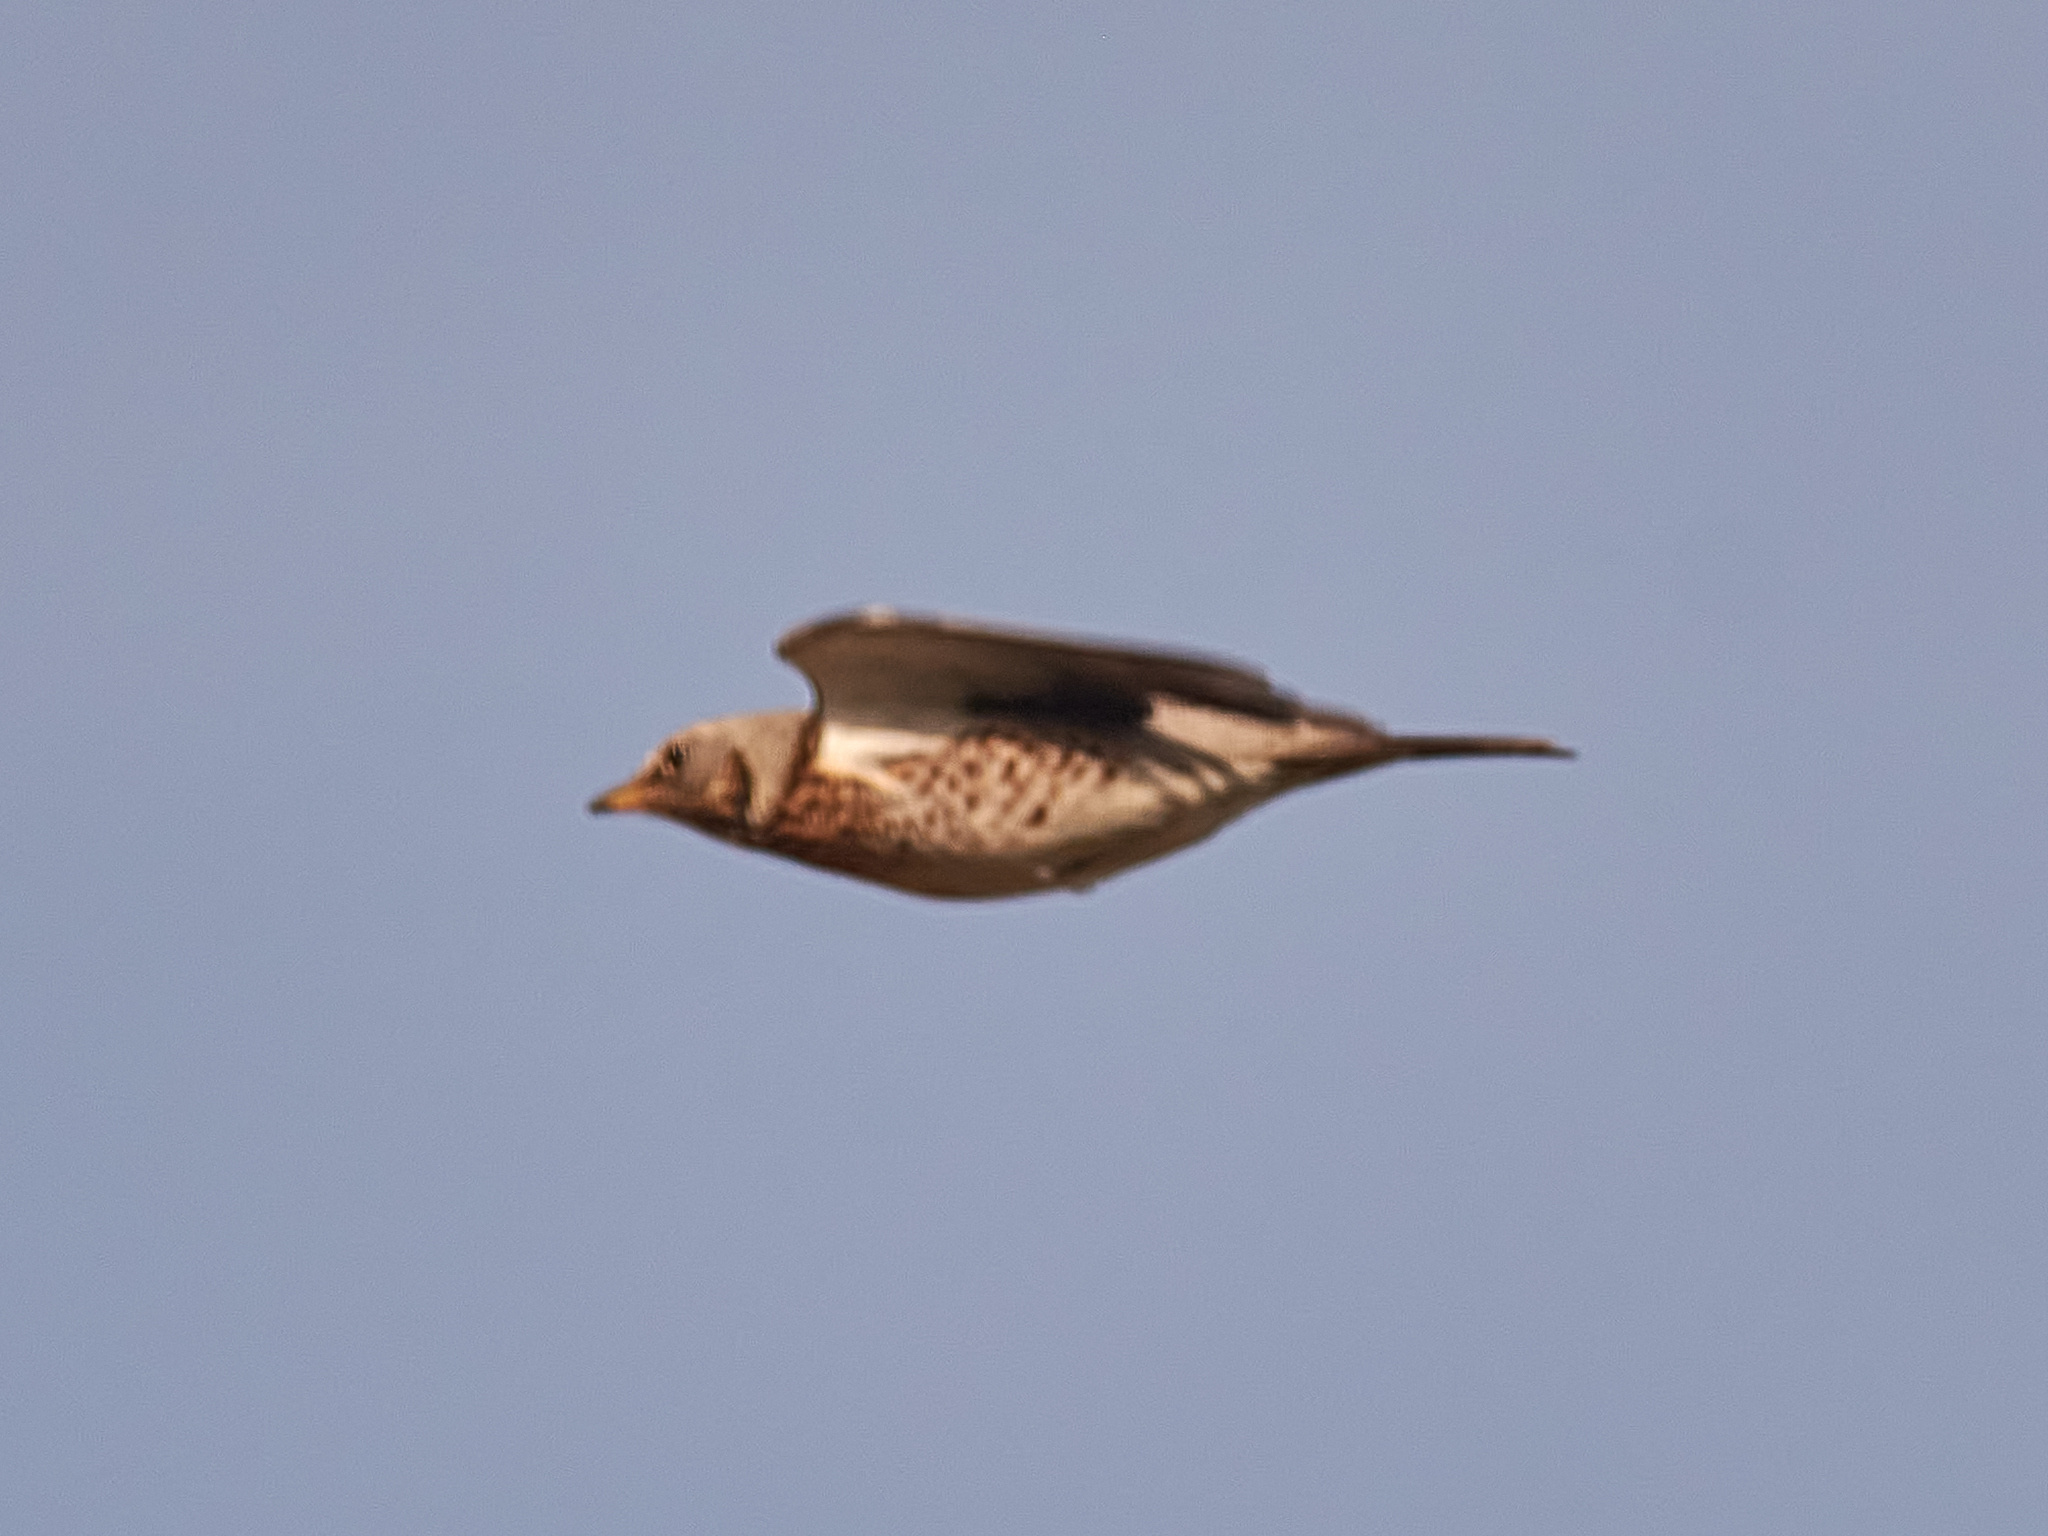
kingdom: Animalia
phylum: Chordata
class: Aves
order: Passeriformes
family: Turdidae
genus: Turdus
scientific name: Turdus pilaris
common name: Fieldfare
